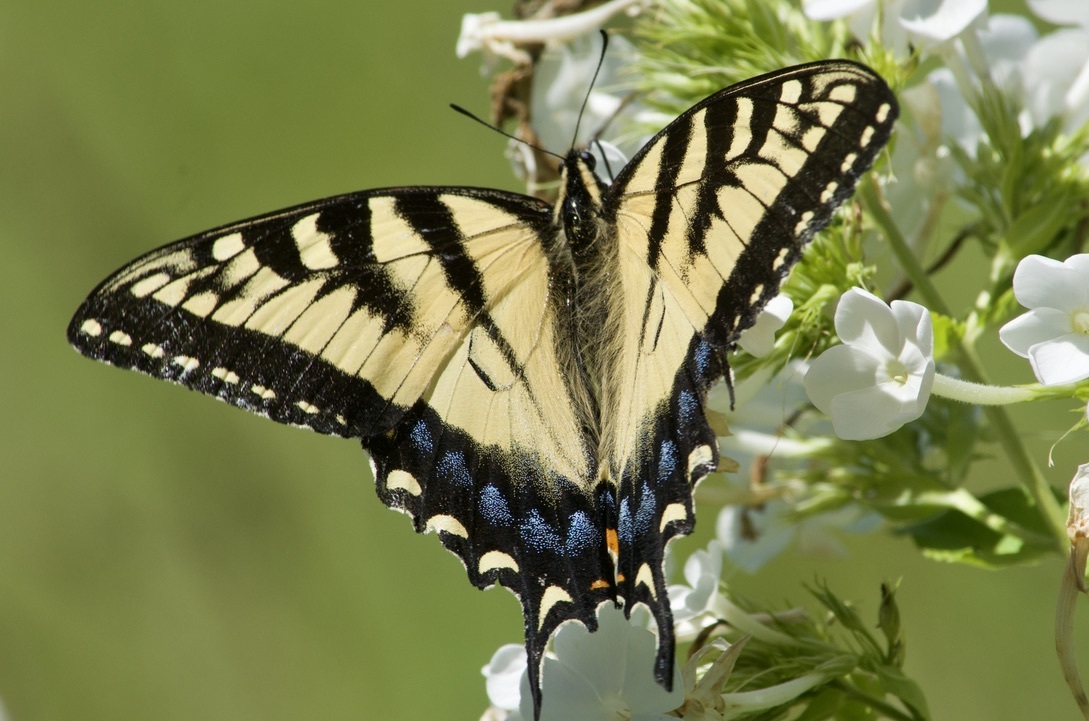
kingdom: Animalia
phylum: Arthropoda
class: Insecta
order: Lepidoptera
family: Papilionidae
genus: Papilio
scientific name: Papilio
